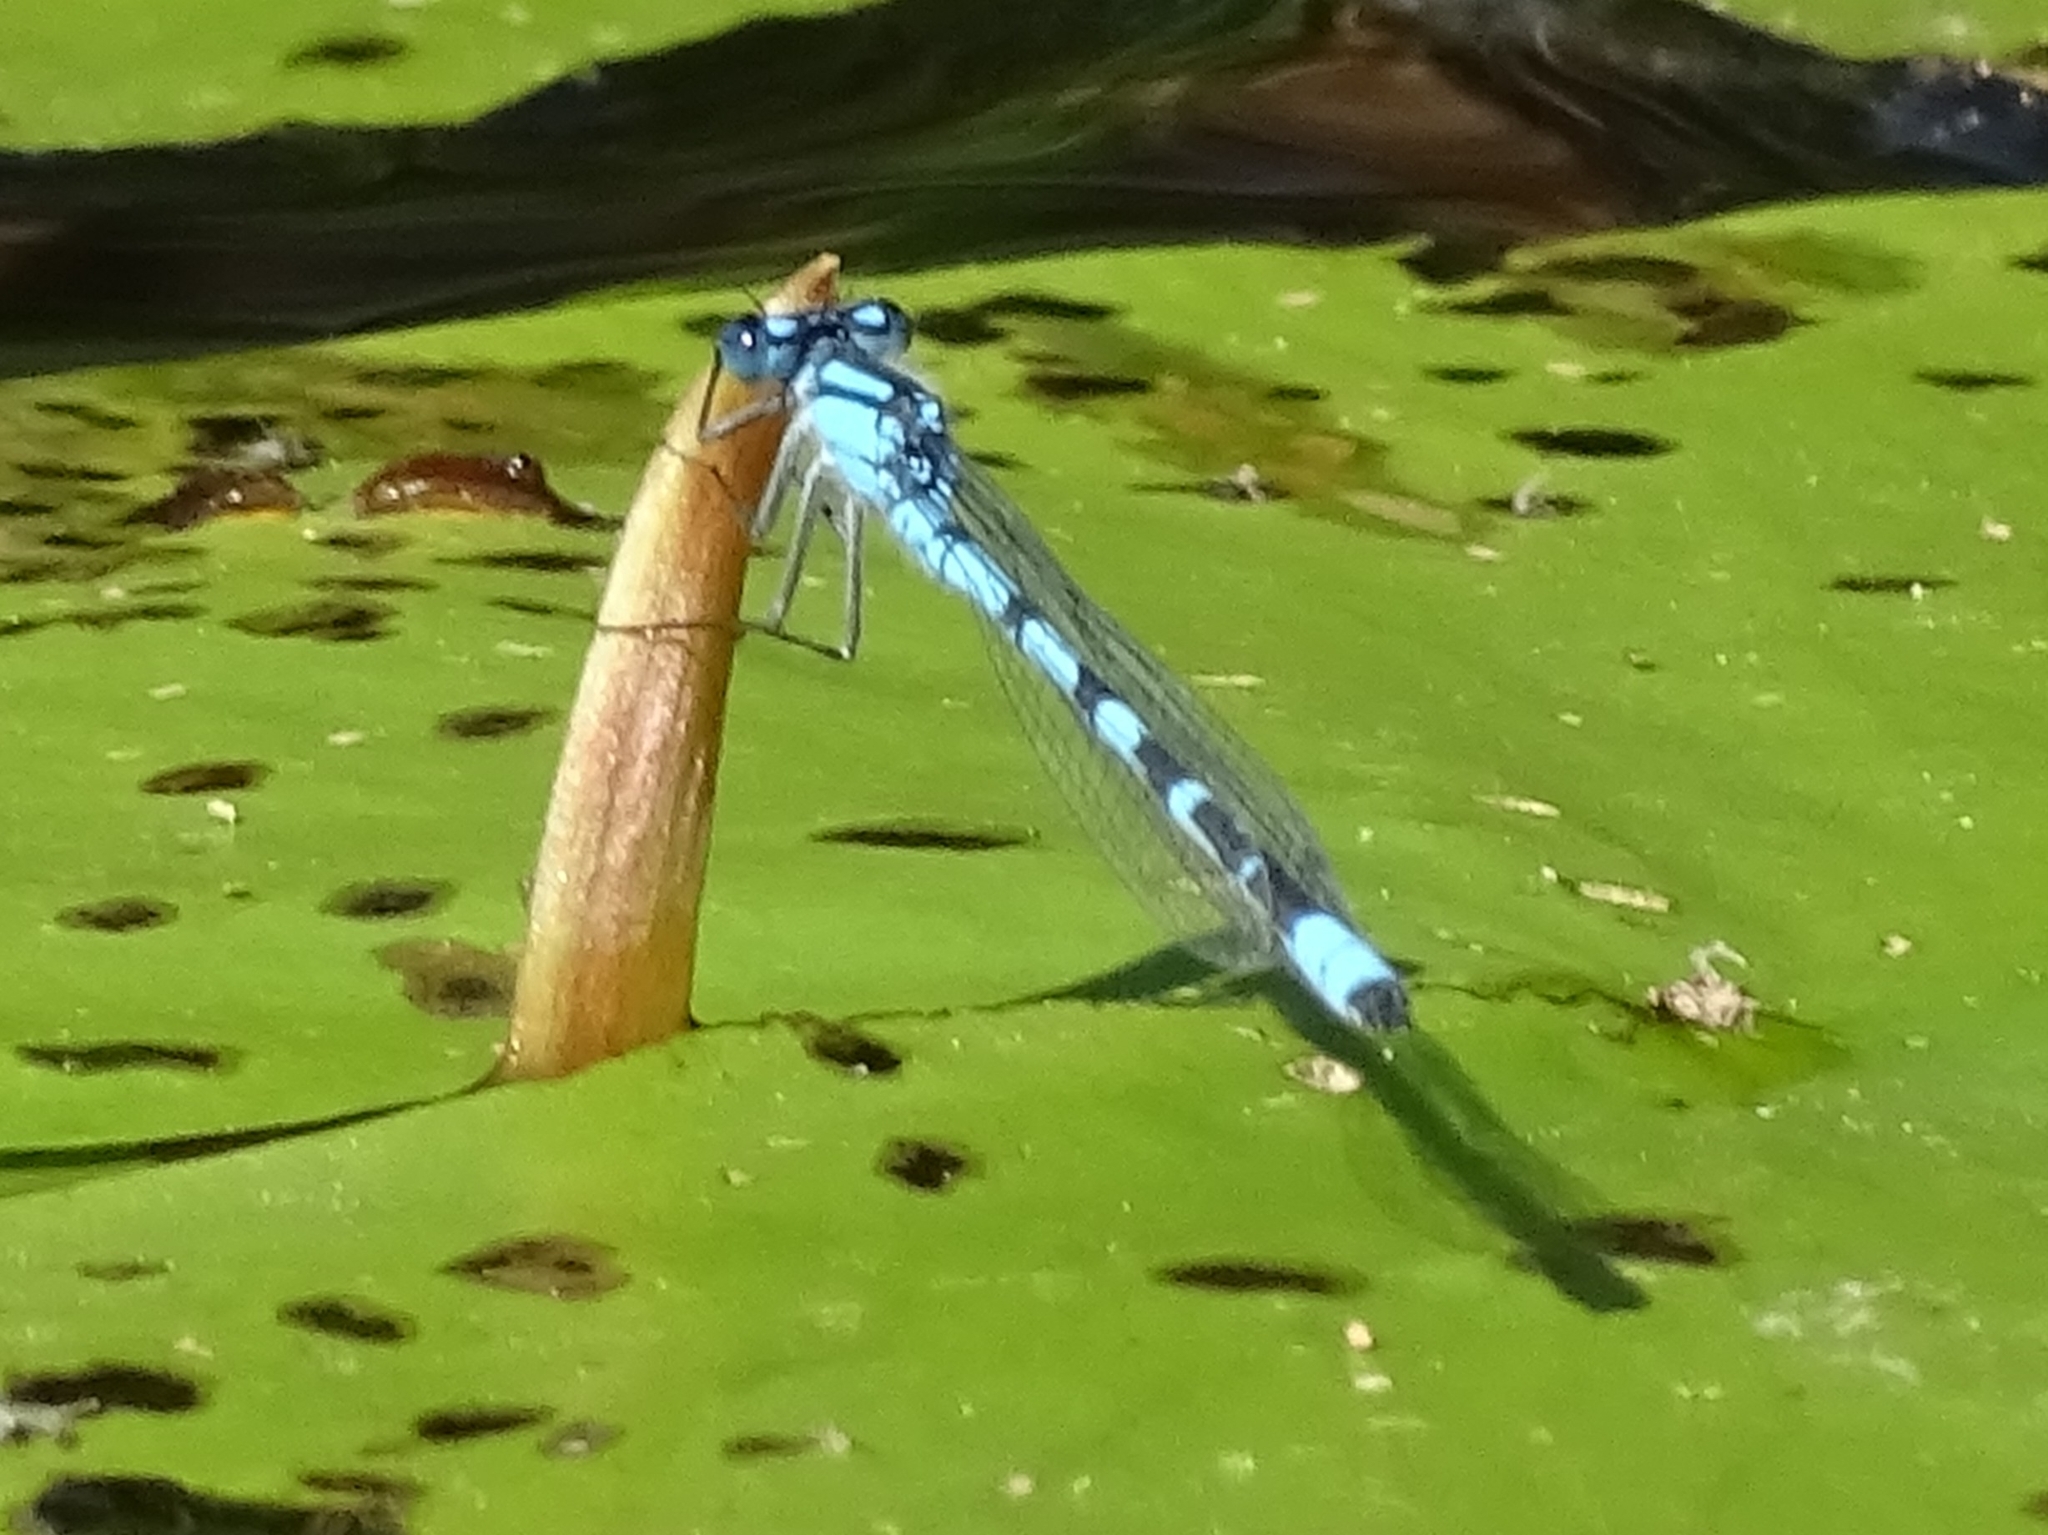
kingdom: Animalia
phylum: Arthropoda
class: Insecta
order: Odonata
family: Coenagrionidae
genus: Enallagma
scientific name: Enallagma cyathigerum
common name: Common blue damselfly
